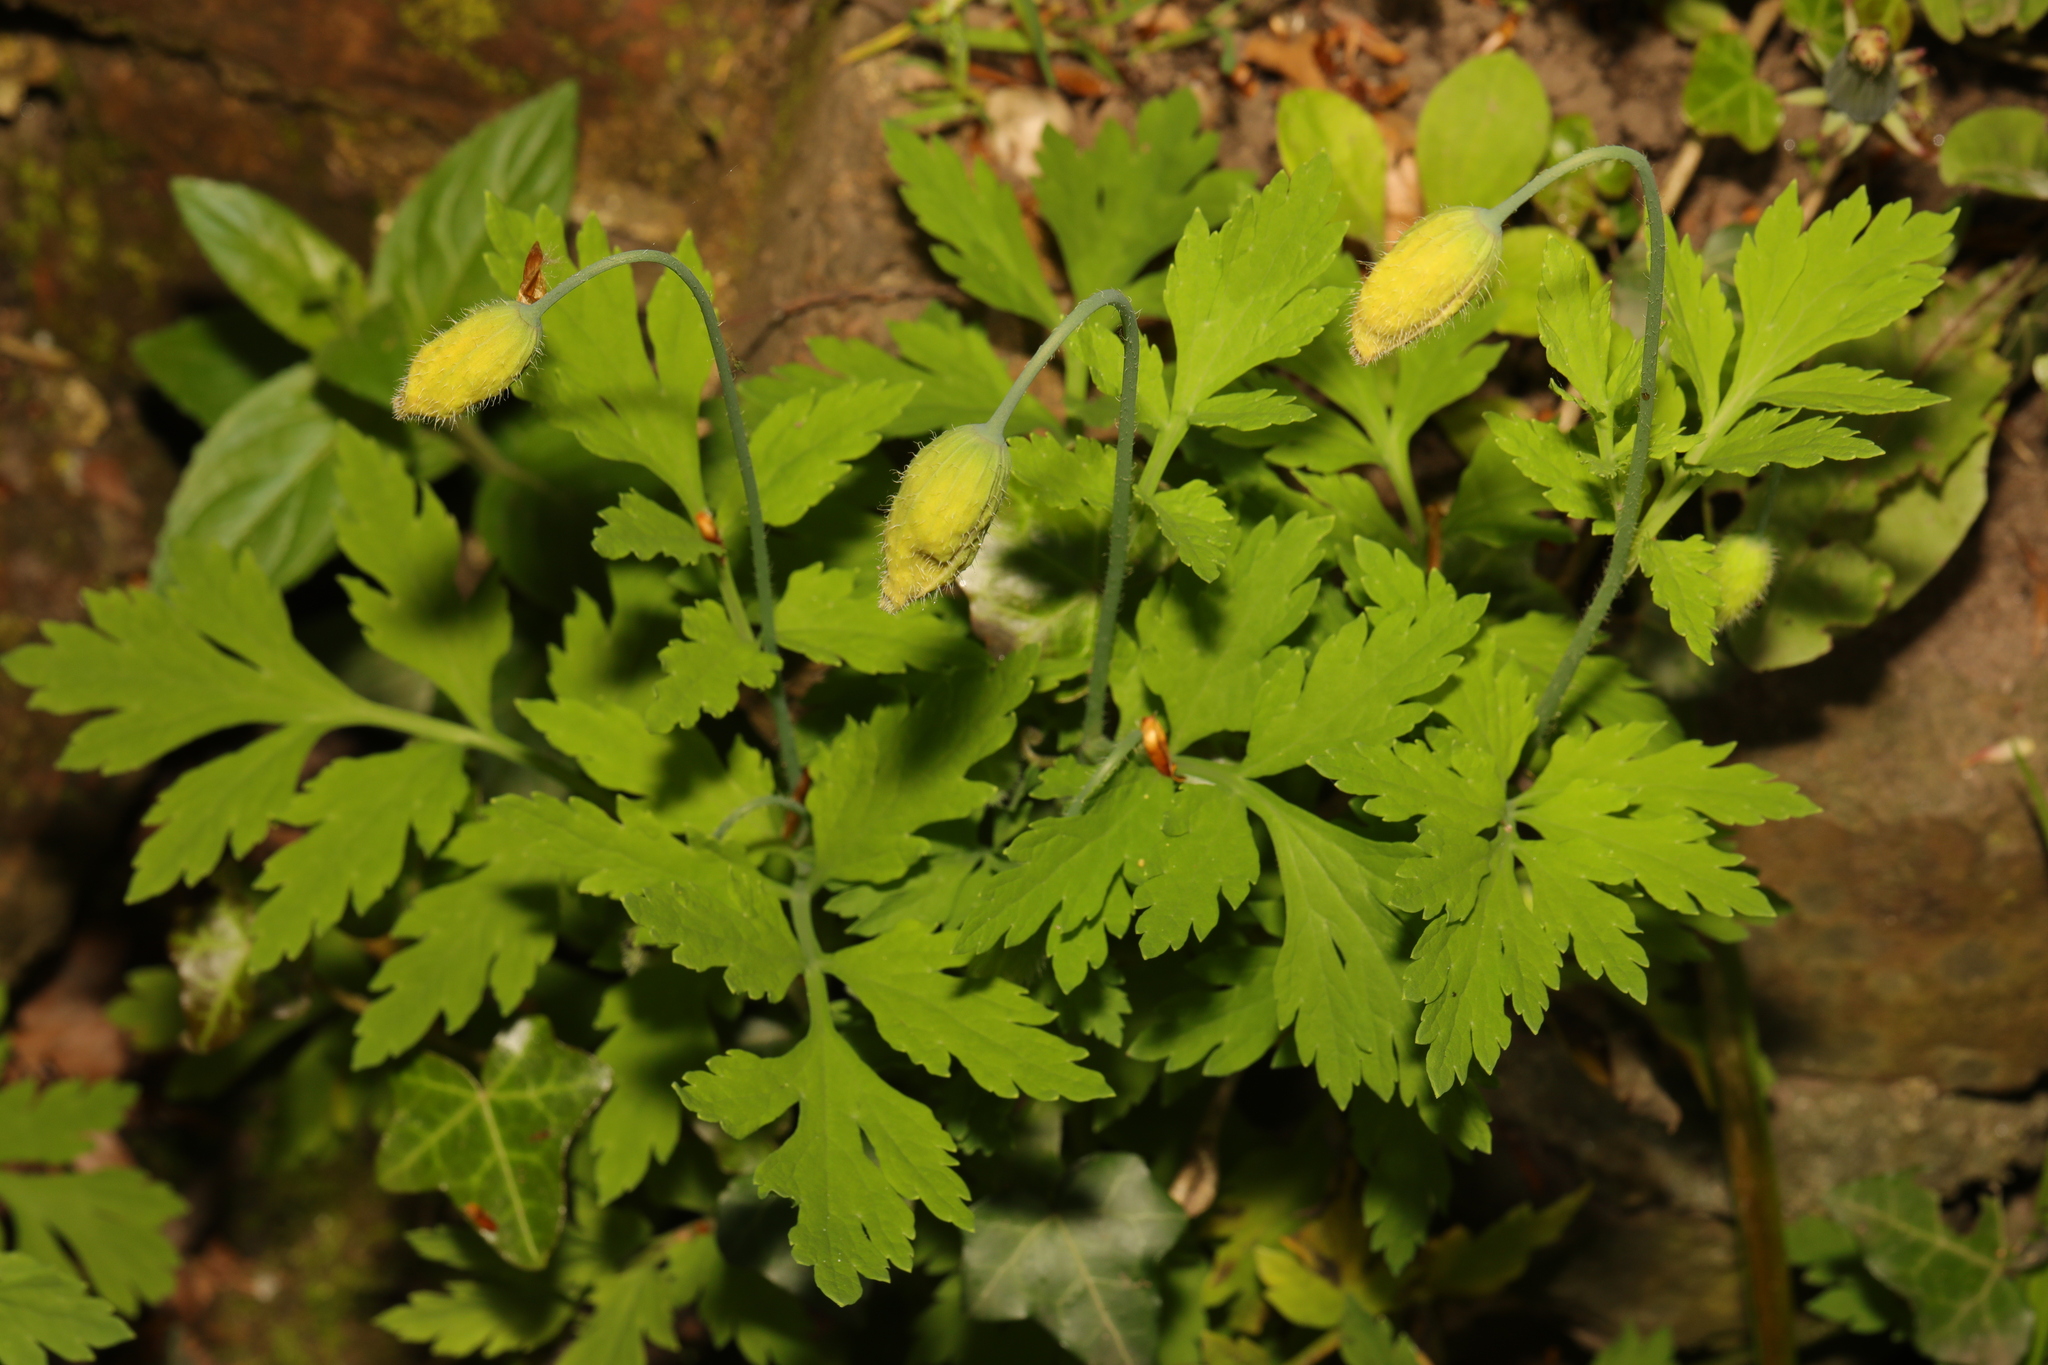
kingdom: Plantae
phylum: Tracheophyta
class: Magnoliopsida
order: Ranunculales
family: Papaveraceae
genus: Papaver
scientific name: Papaver cambricum
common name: Poppy
